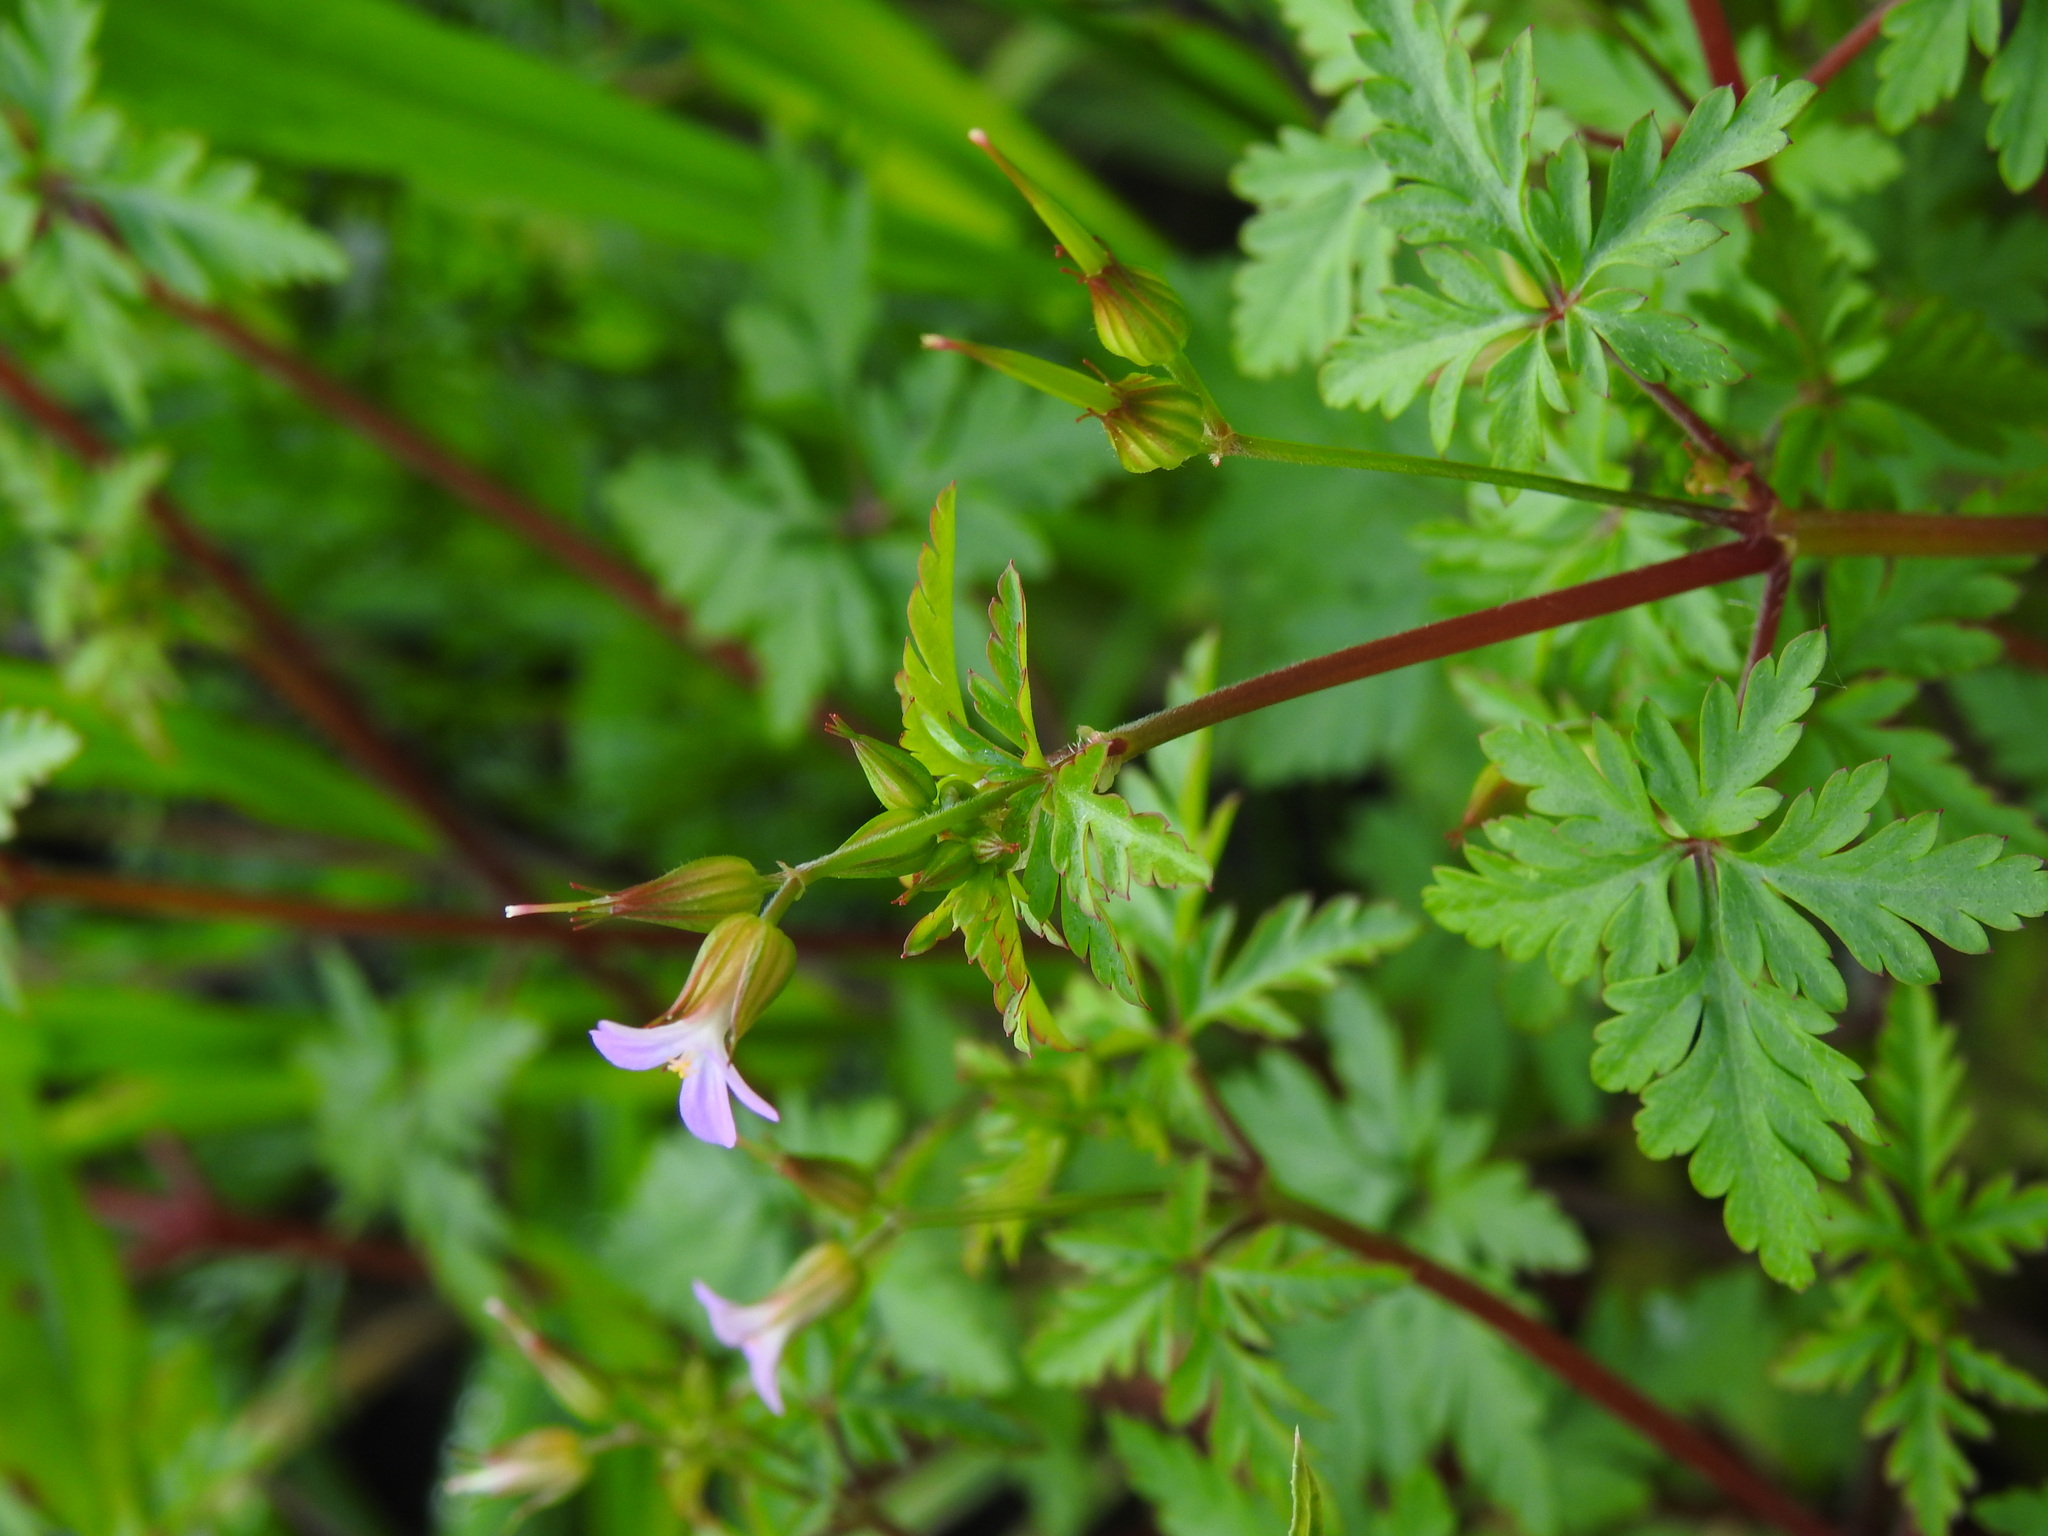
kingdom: Plantae
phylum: Tracheophyta
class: Magnoliopsida
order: Geraniales
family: Geraniaceae
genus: Geranium
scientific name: Geranium purpureum
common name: Little-robin
